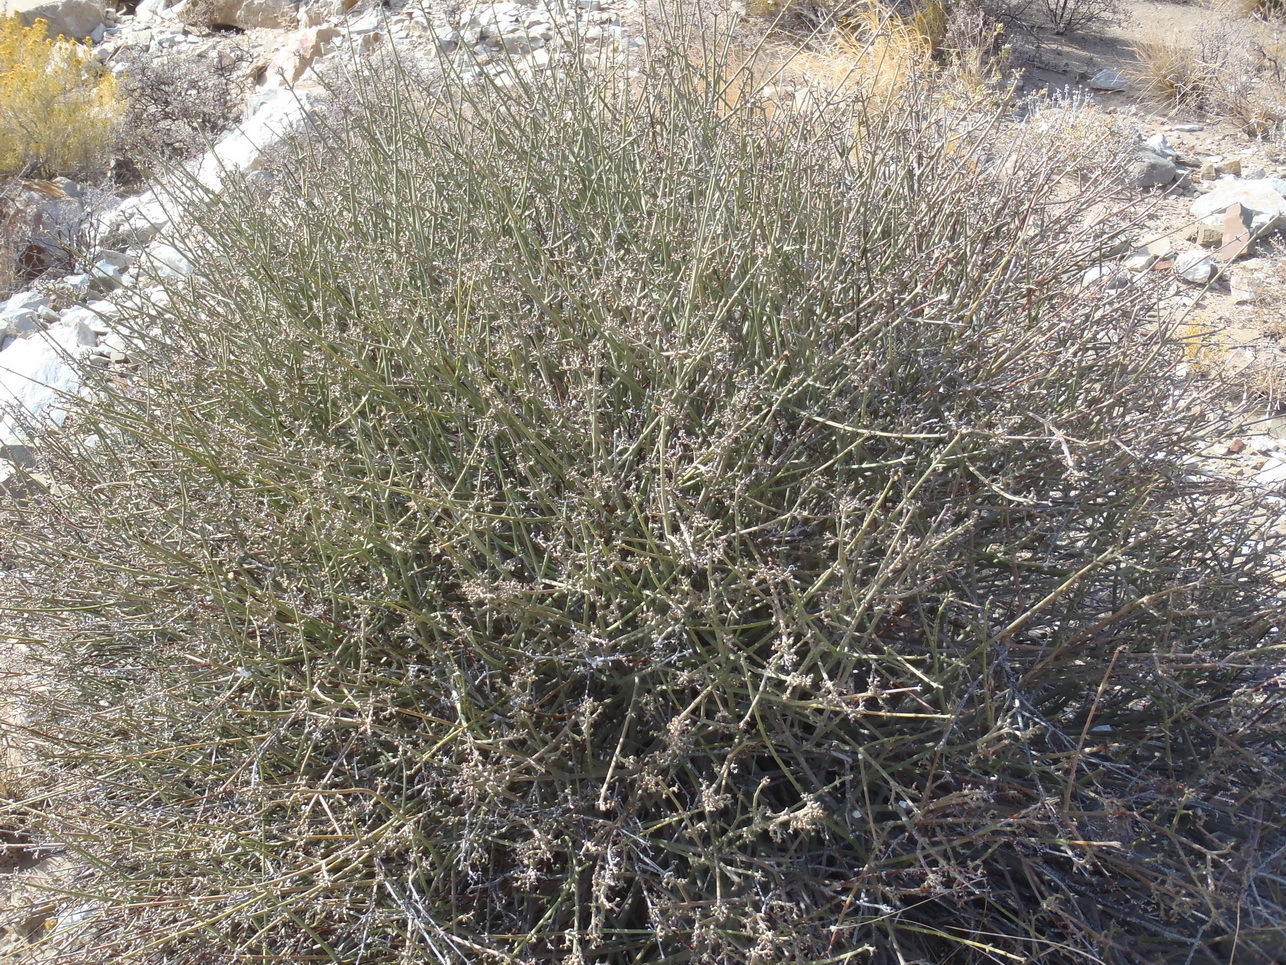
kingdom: Plantae
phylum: Tracheophyta
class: Magnoliopsida
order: Malpighiales
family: Euphorbiaceae
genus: Euphorbia
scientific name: Euphorbia tenax
